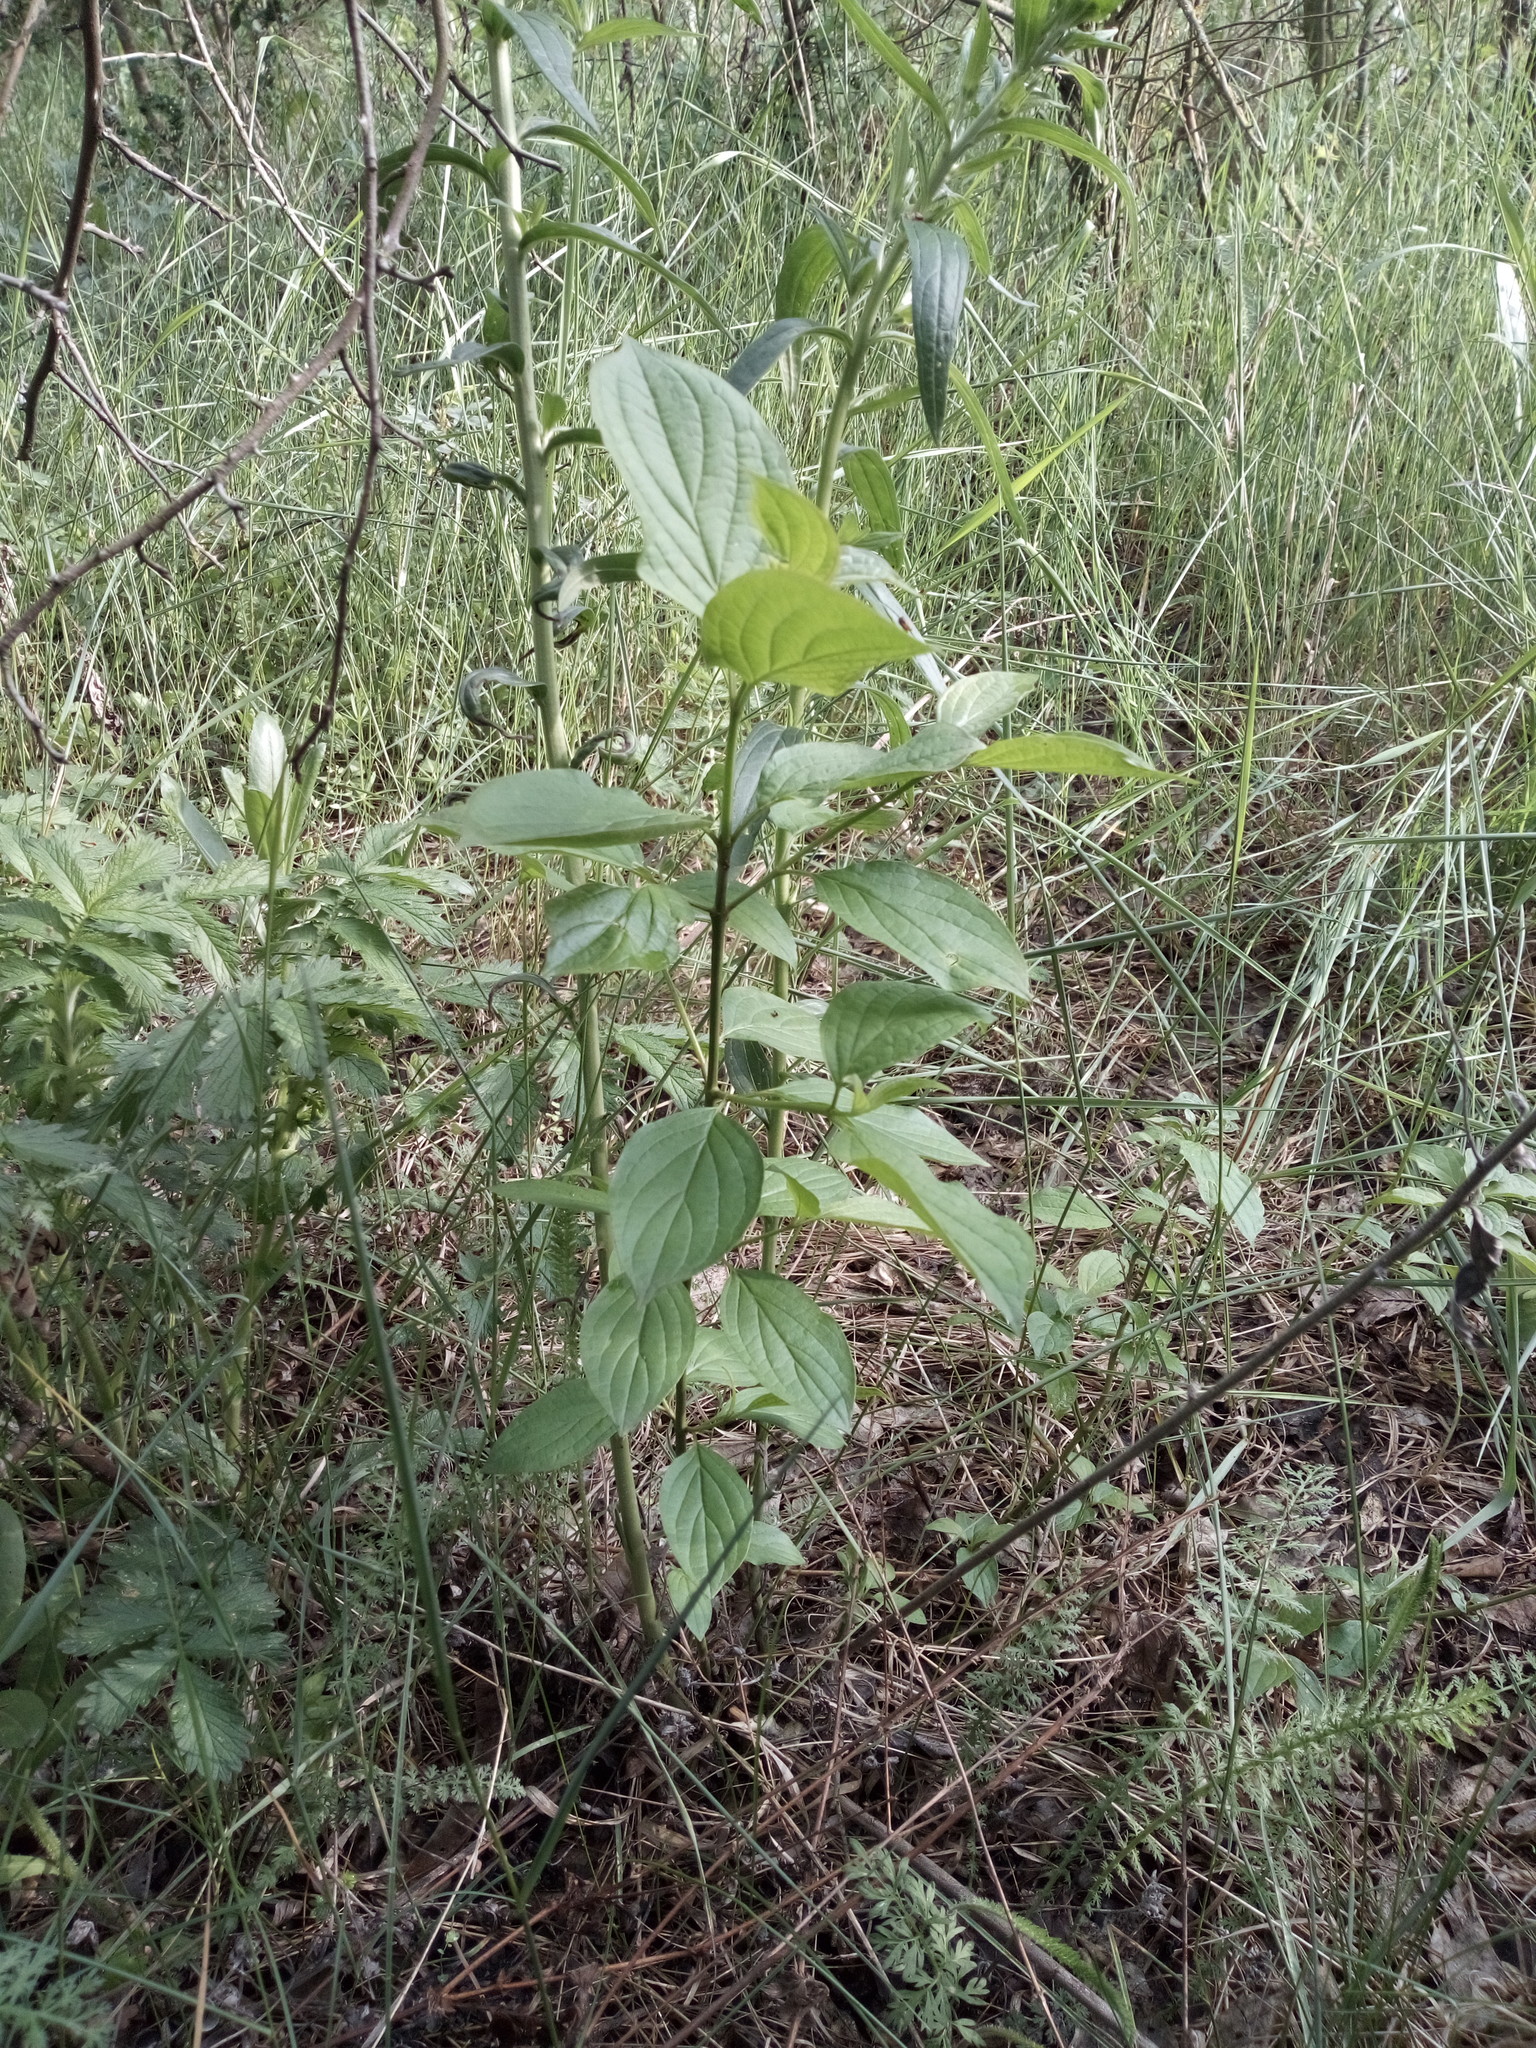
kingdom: Plantae
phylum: Tracheophyta
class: Magnoliopsida
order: Cornales
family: Cornaceae
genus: Cornus
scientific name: Cornus sanguinea
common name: Dogwood
